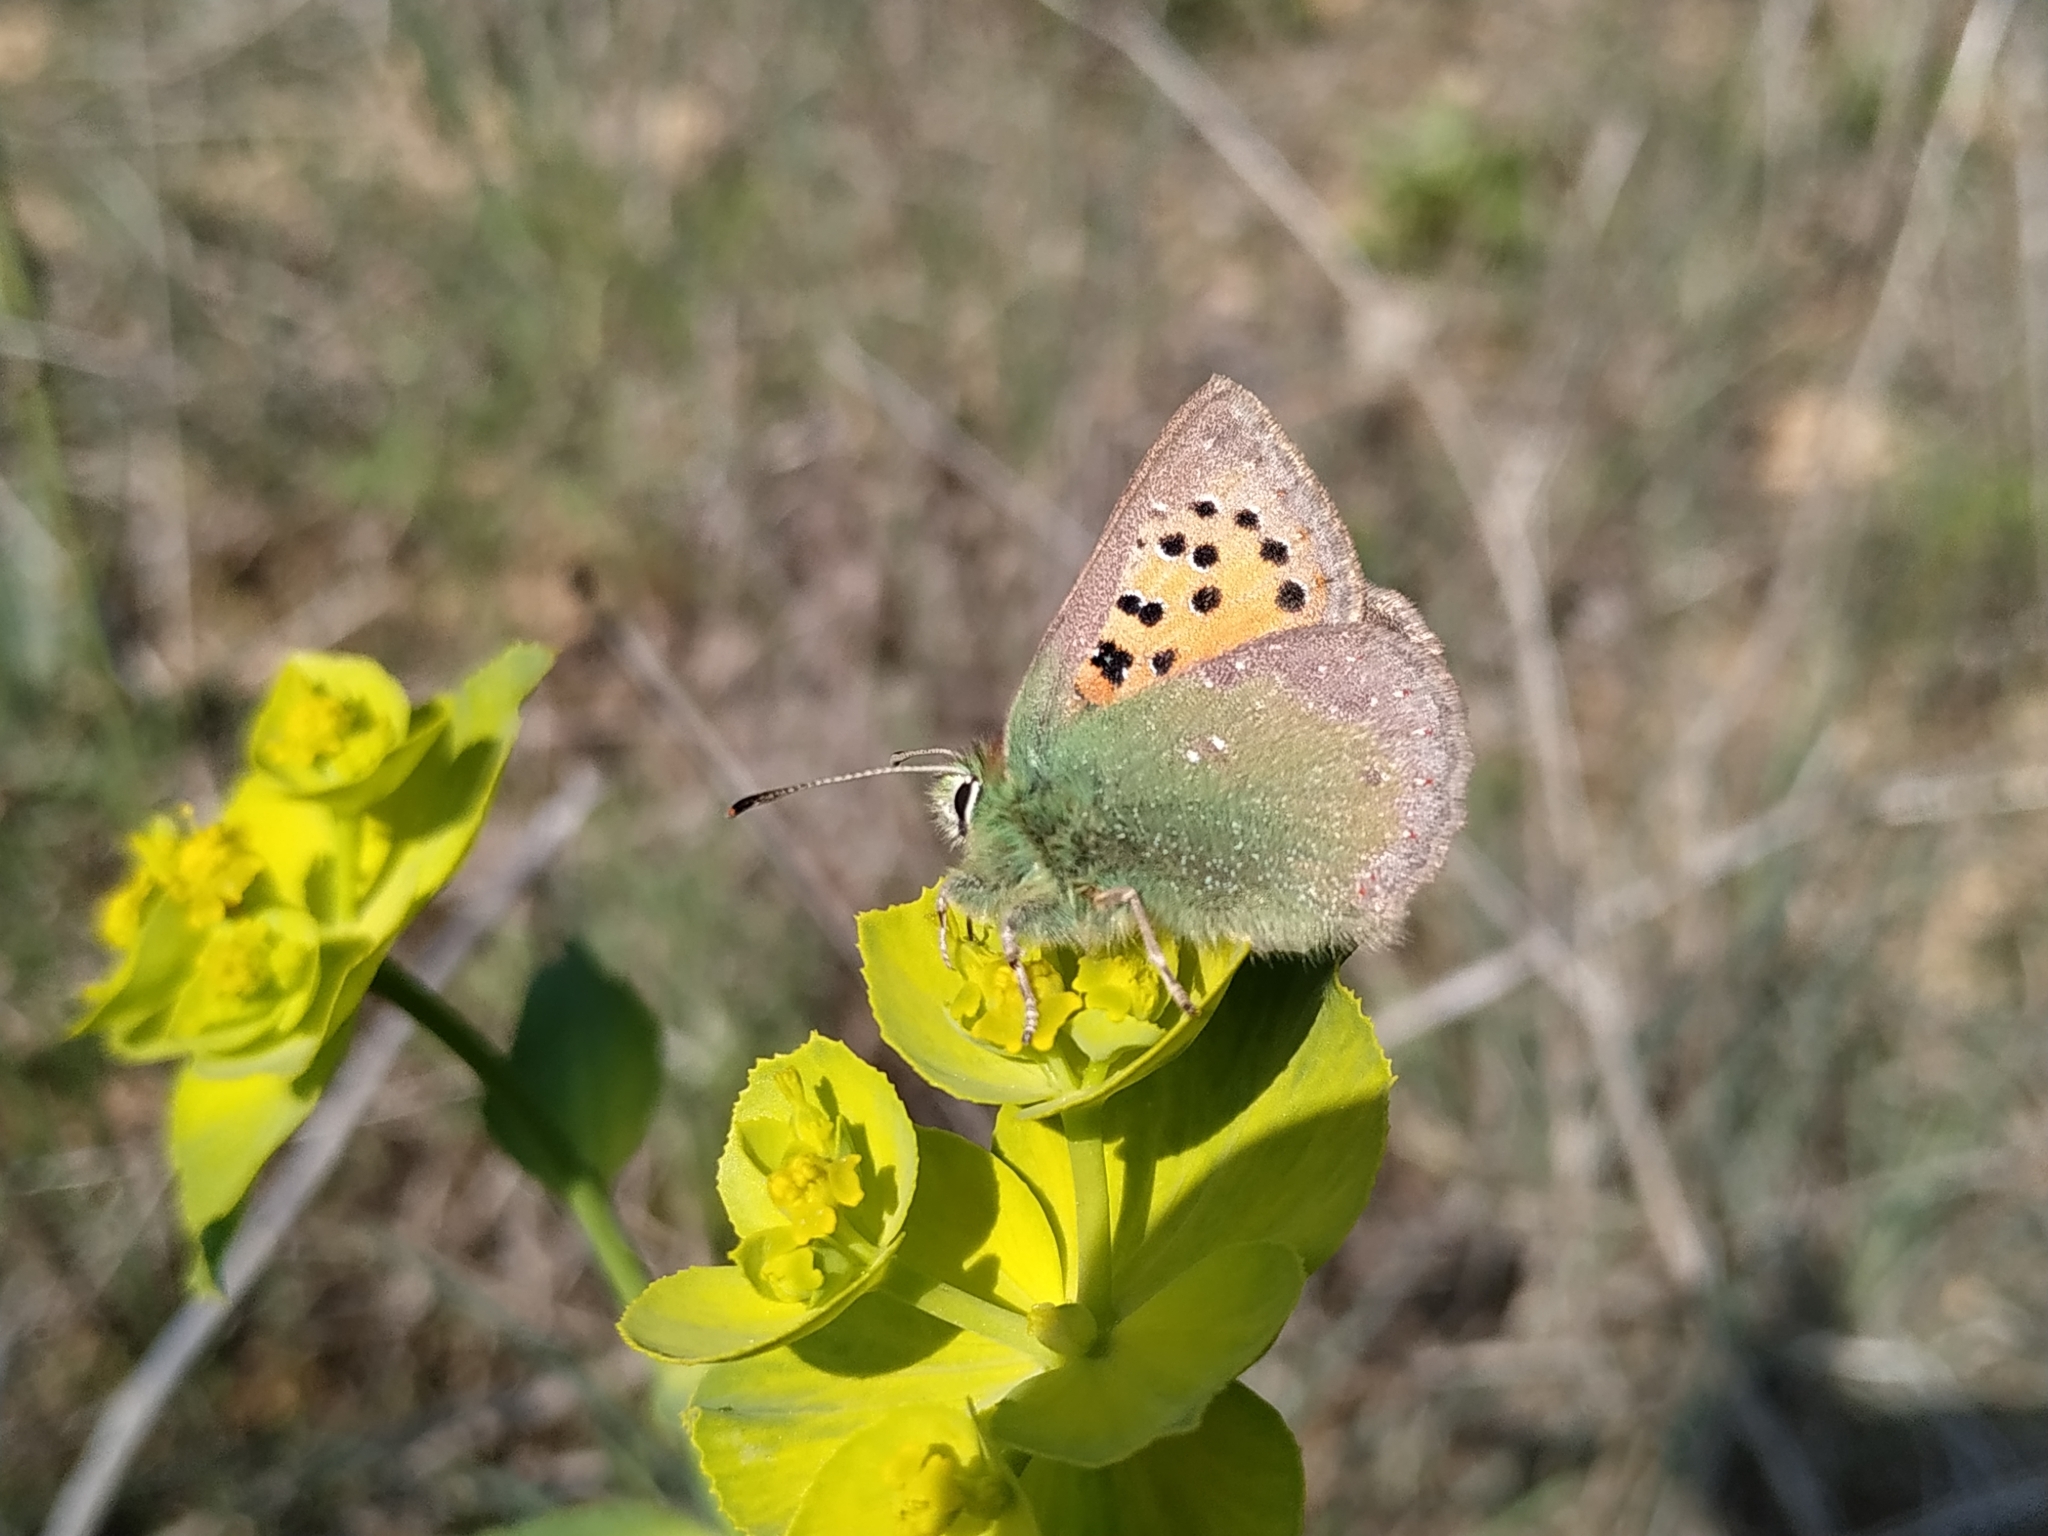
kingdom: Animalia
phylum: Arthropoda
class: Insecta
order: Lepidoptera
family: Lycaenidae
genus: Tomares
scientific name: Tomares ballus
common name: Provence hairstreak
